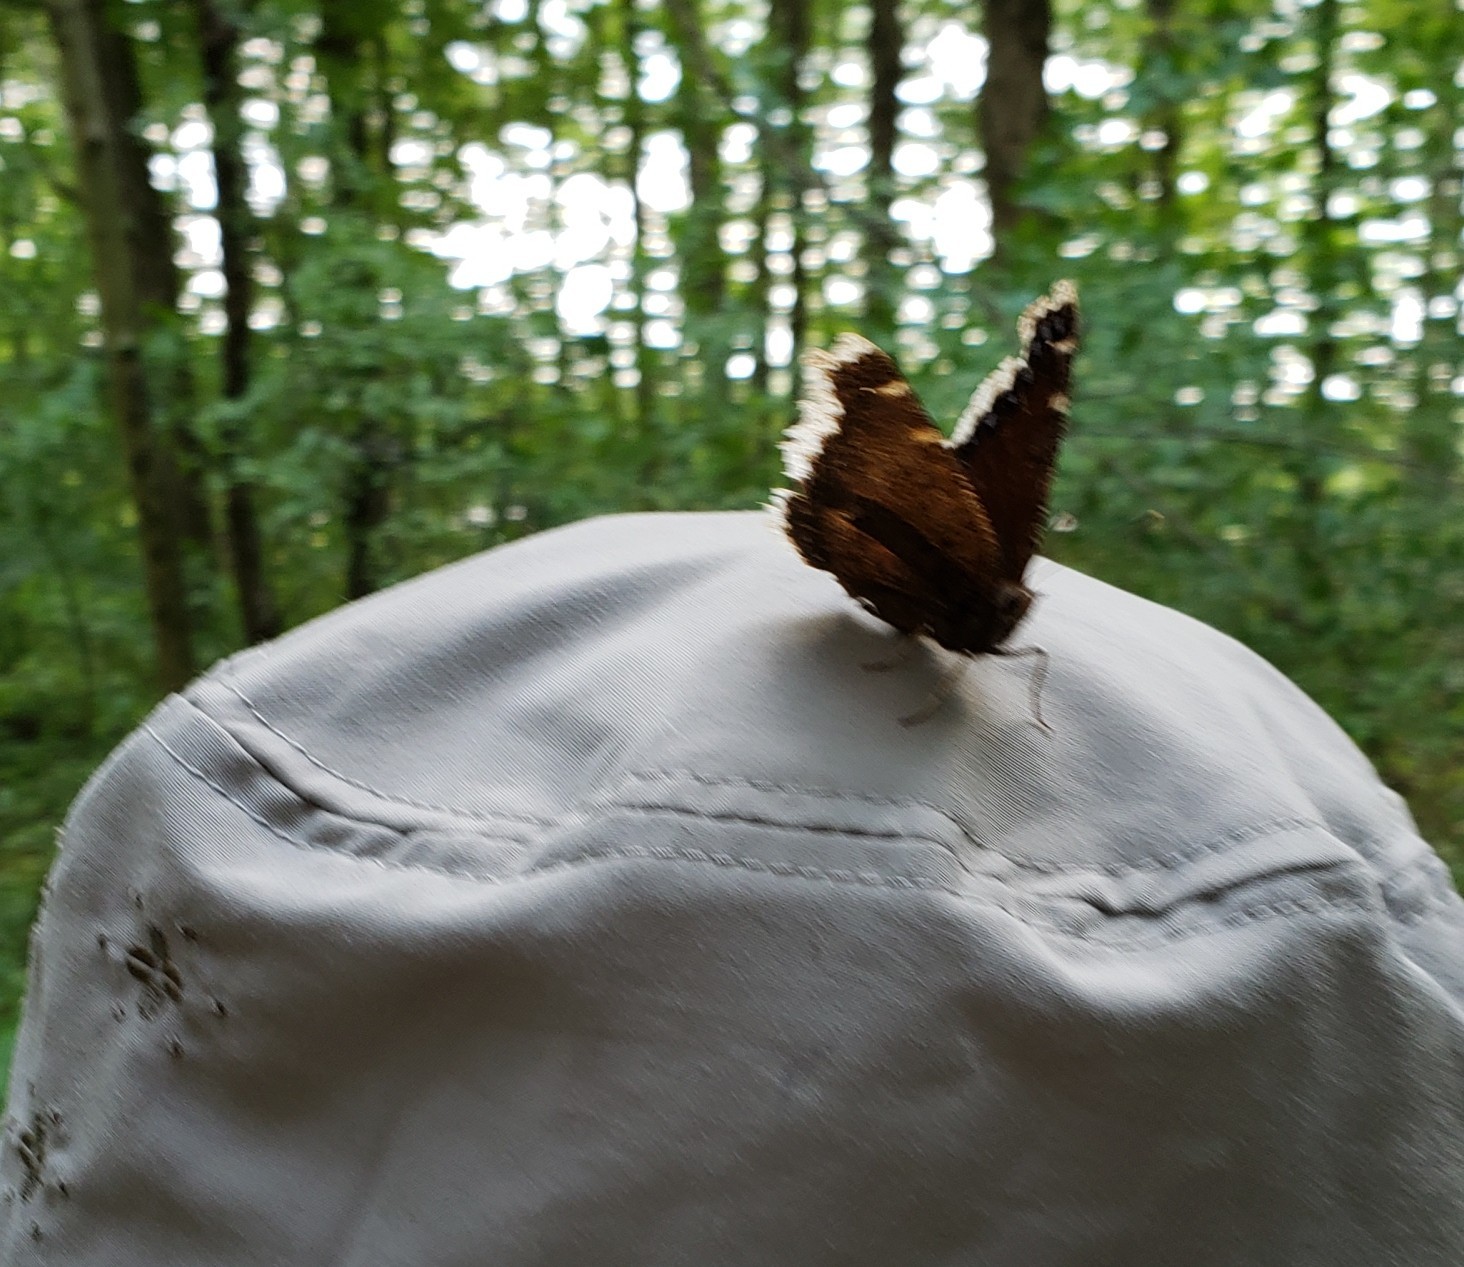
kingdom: Animalia
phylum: Arthropoda
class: Insecta
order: Lepidoptera
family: Nymphalidae
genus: Nymphalis
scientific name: Nymphalis antiopa
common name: Camberwell beauty
